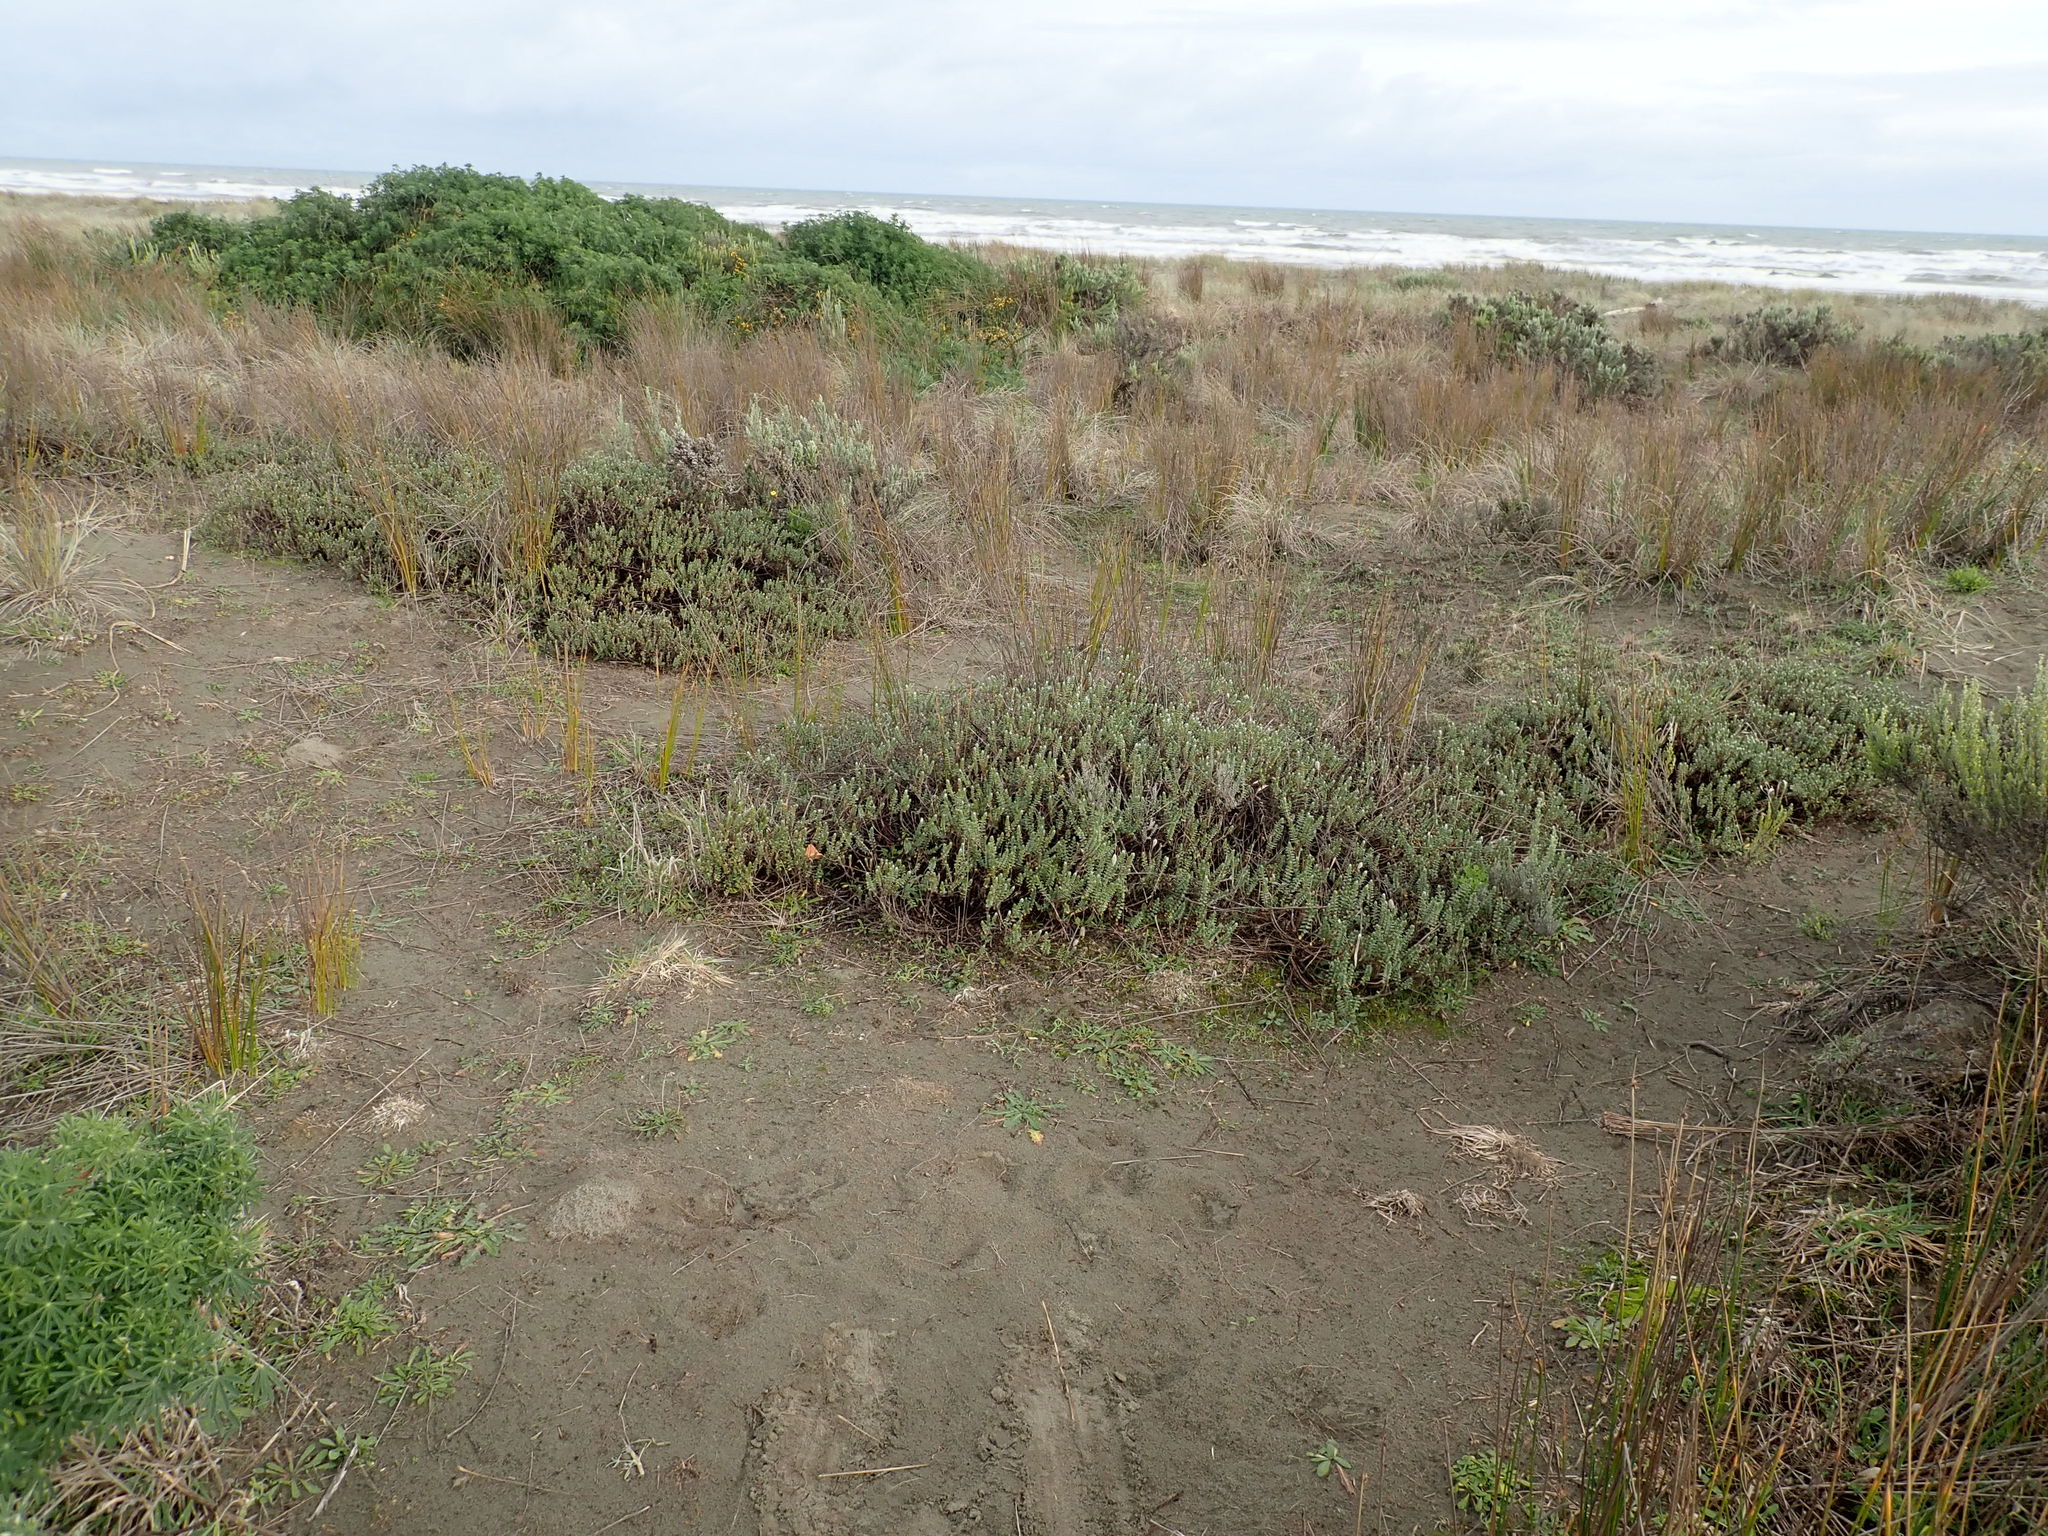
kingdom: Plantae
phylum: Tracheophyta
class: Magnoliopsida
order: Malvales
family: Thymelaeaceae
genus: Pimelea
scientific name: Pimelea villosa
